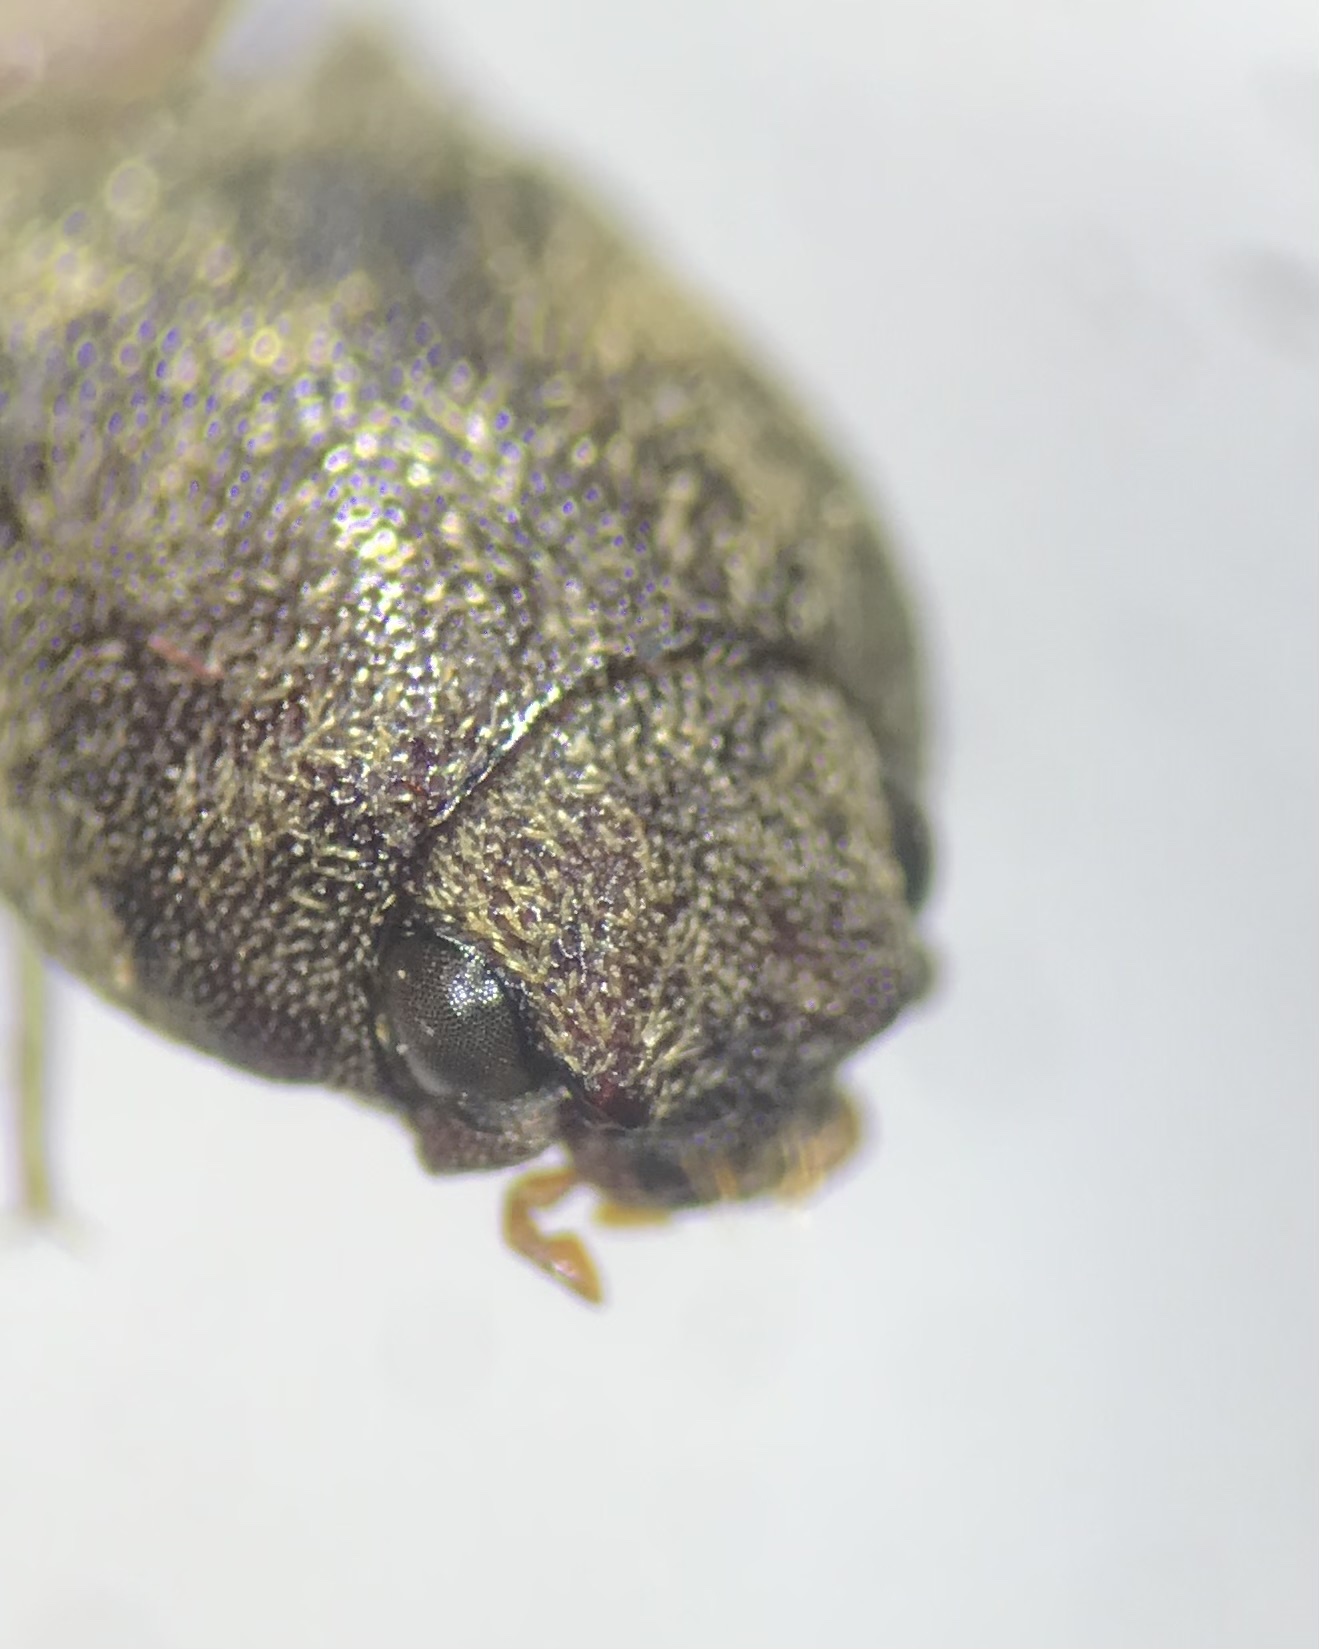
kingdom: Animalia
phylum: Arthropoda
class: Insecta
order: Coleoptera
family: Elateridae
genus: Lacon
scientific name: Lacon avitus
